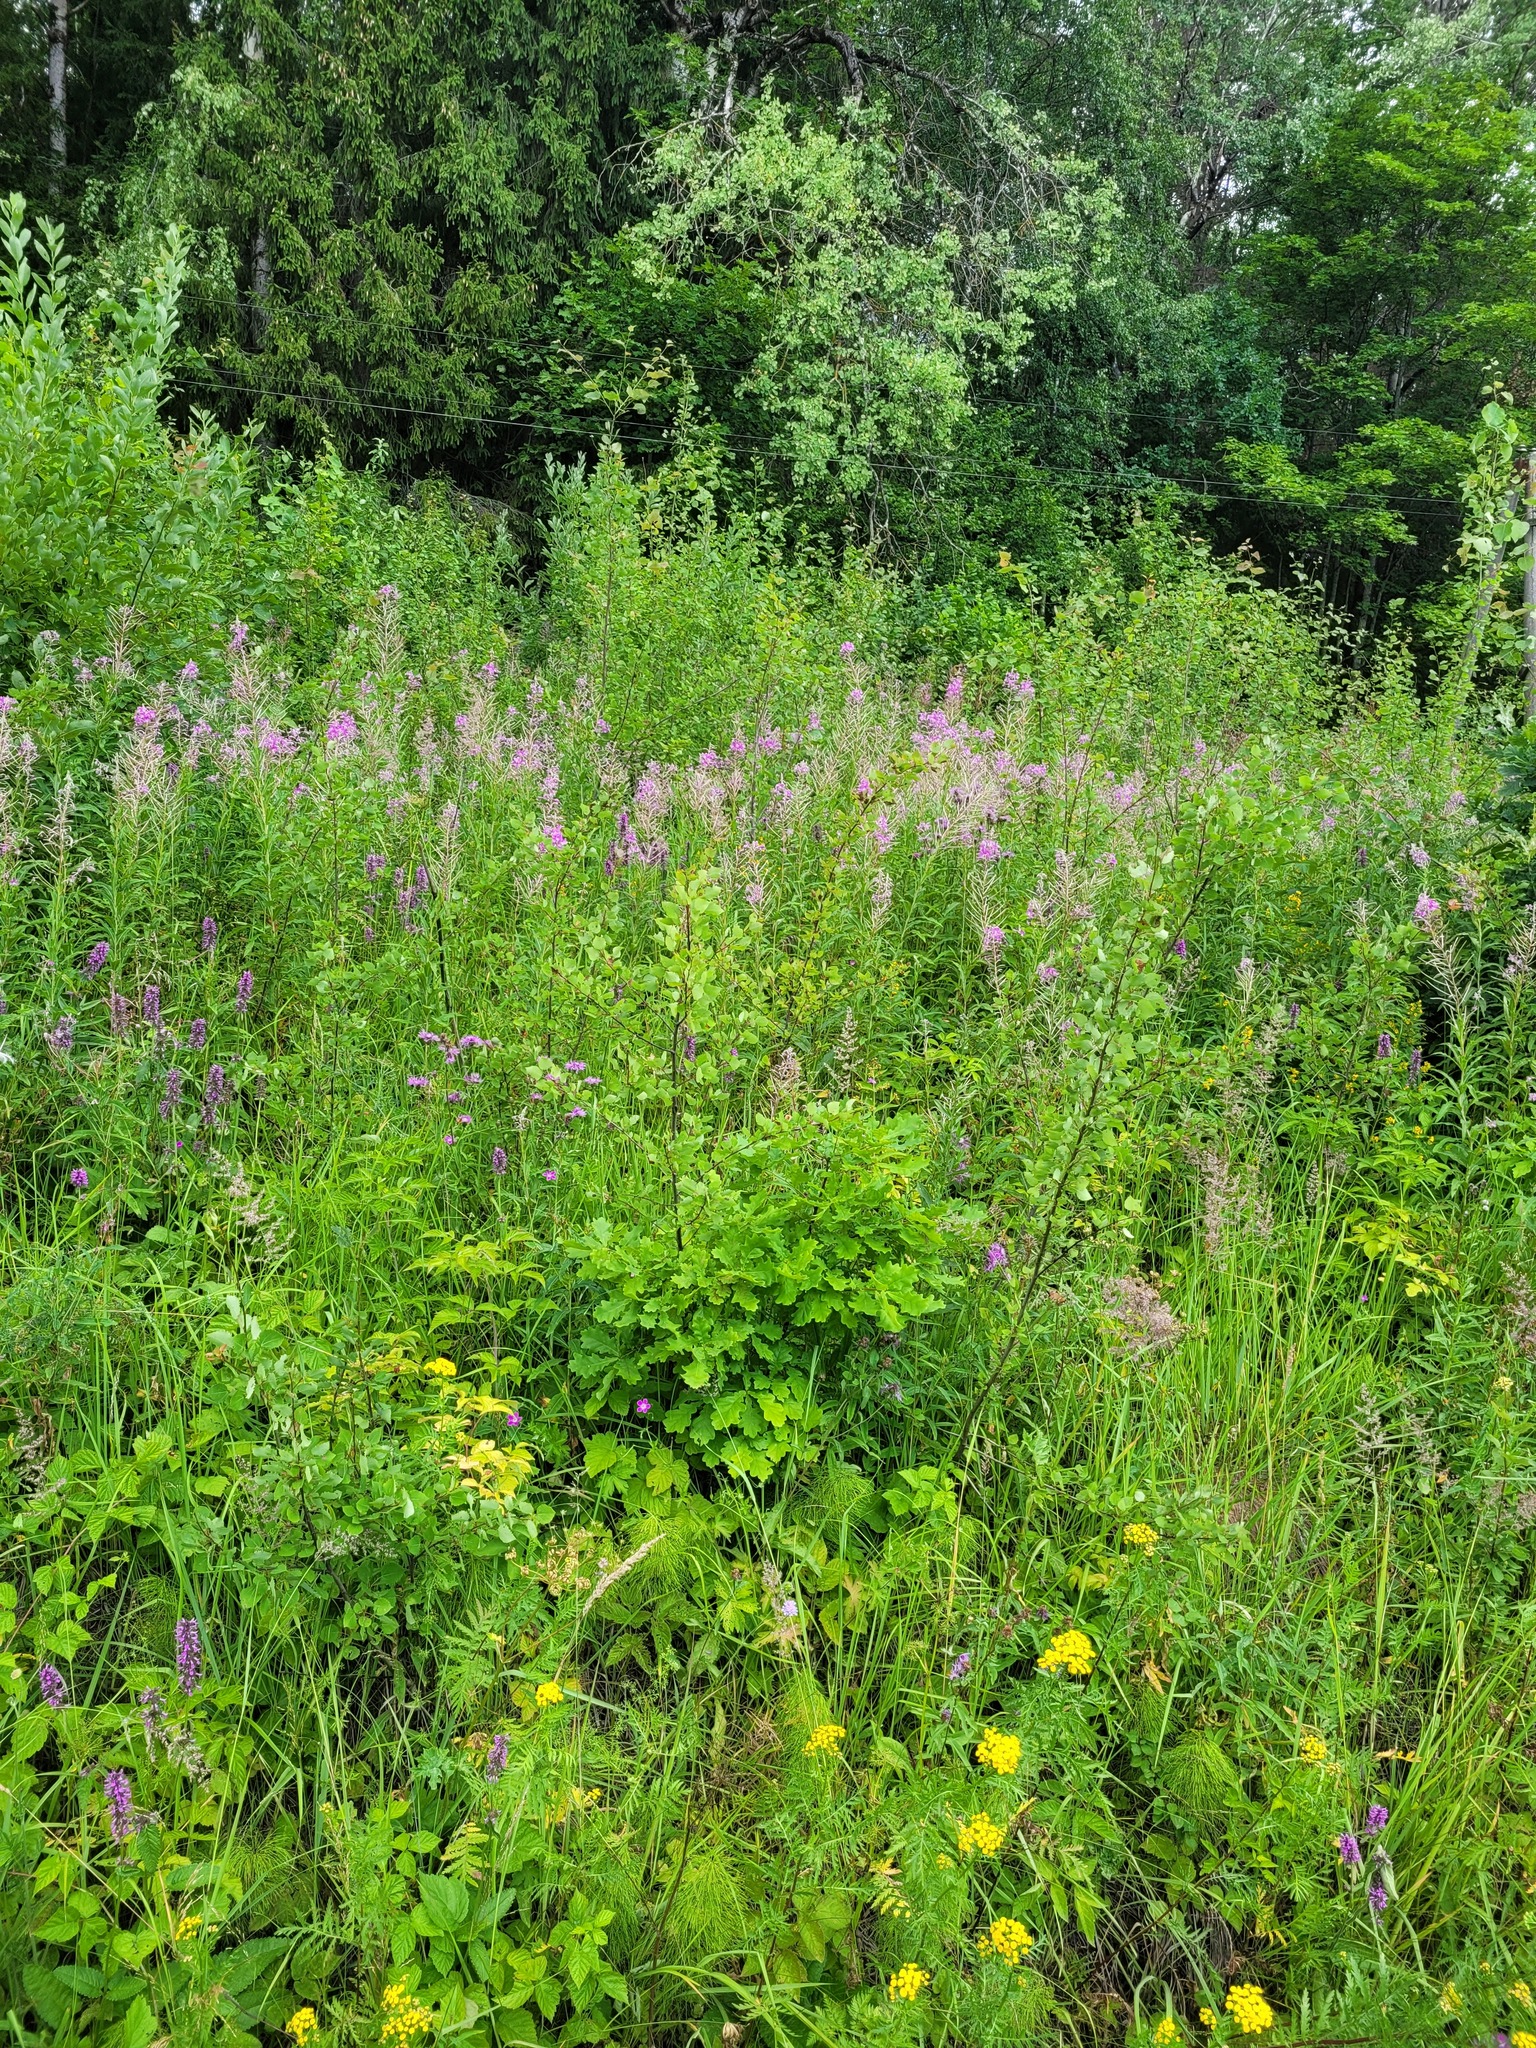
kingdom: Plantae
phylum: Tracheophyta
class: Magnoliopsida
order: Fagales
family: Fagaceae
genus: Quercus
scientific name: Quercus robur
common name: Pedunculate oak
